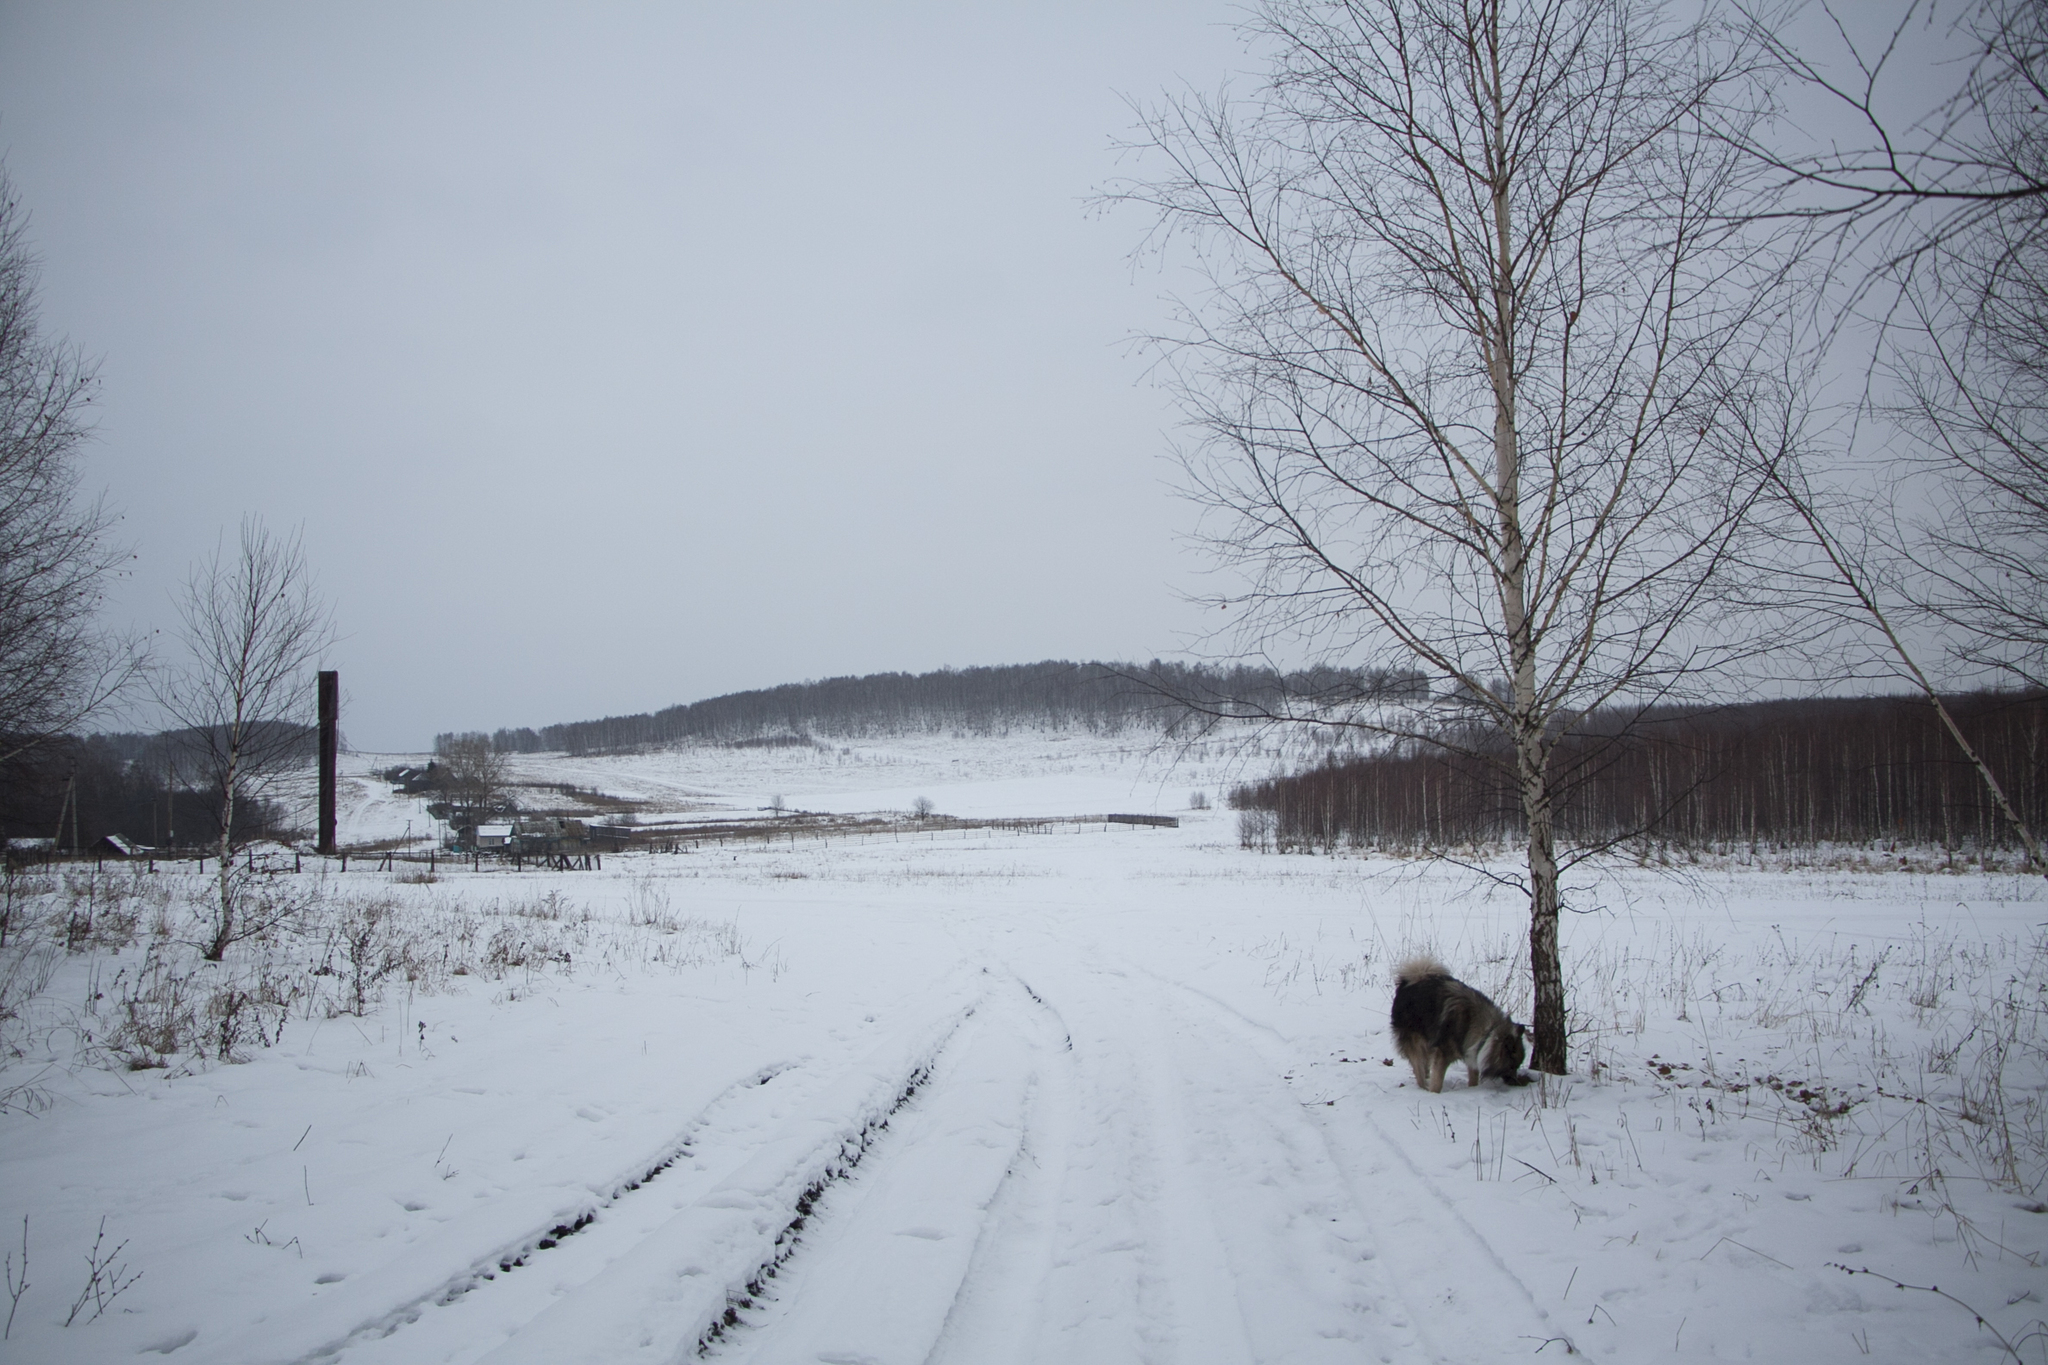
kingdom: Plantae
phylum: Tracheophyta
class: Magnoliopsida
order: Fagales
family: Betulaceae
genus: Betula
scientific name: Betula pendula
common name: Silver birch
